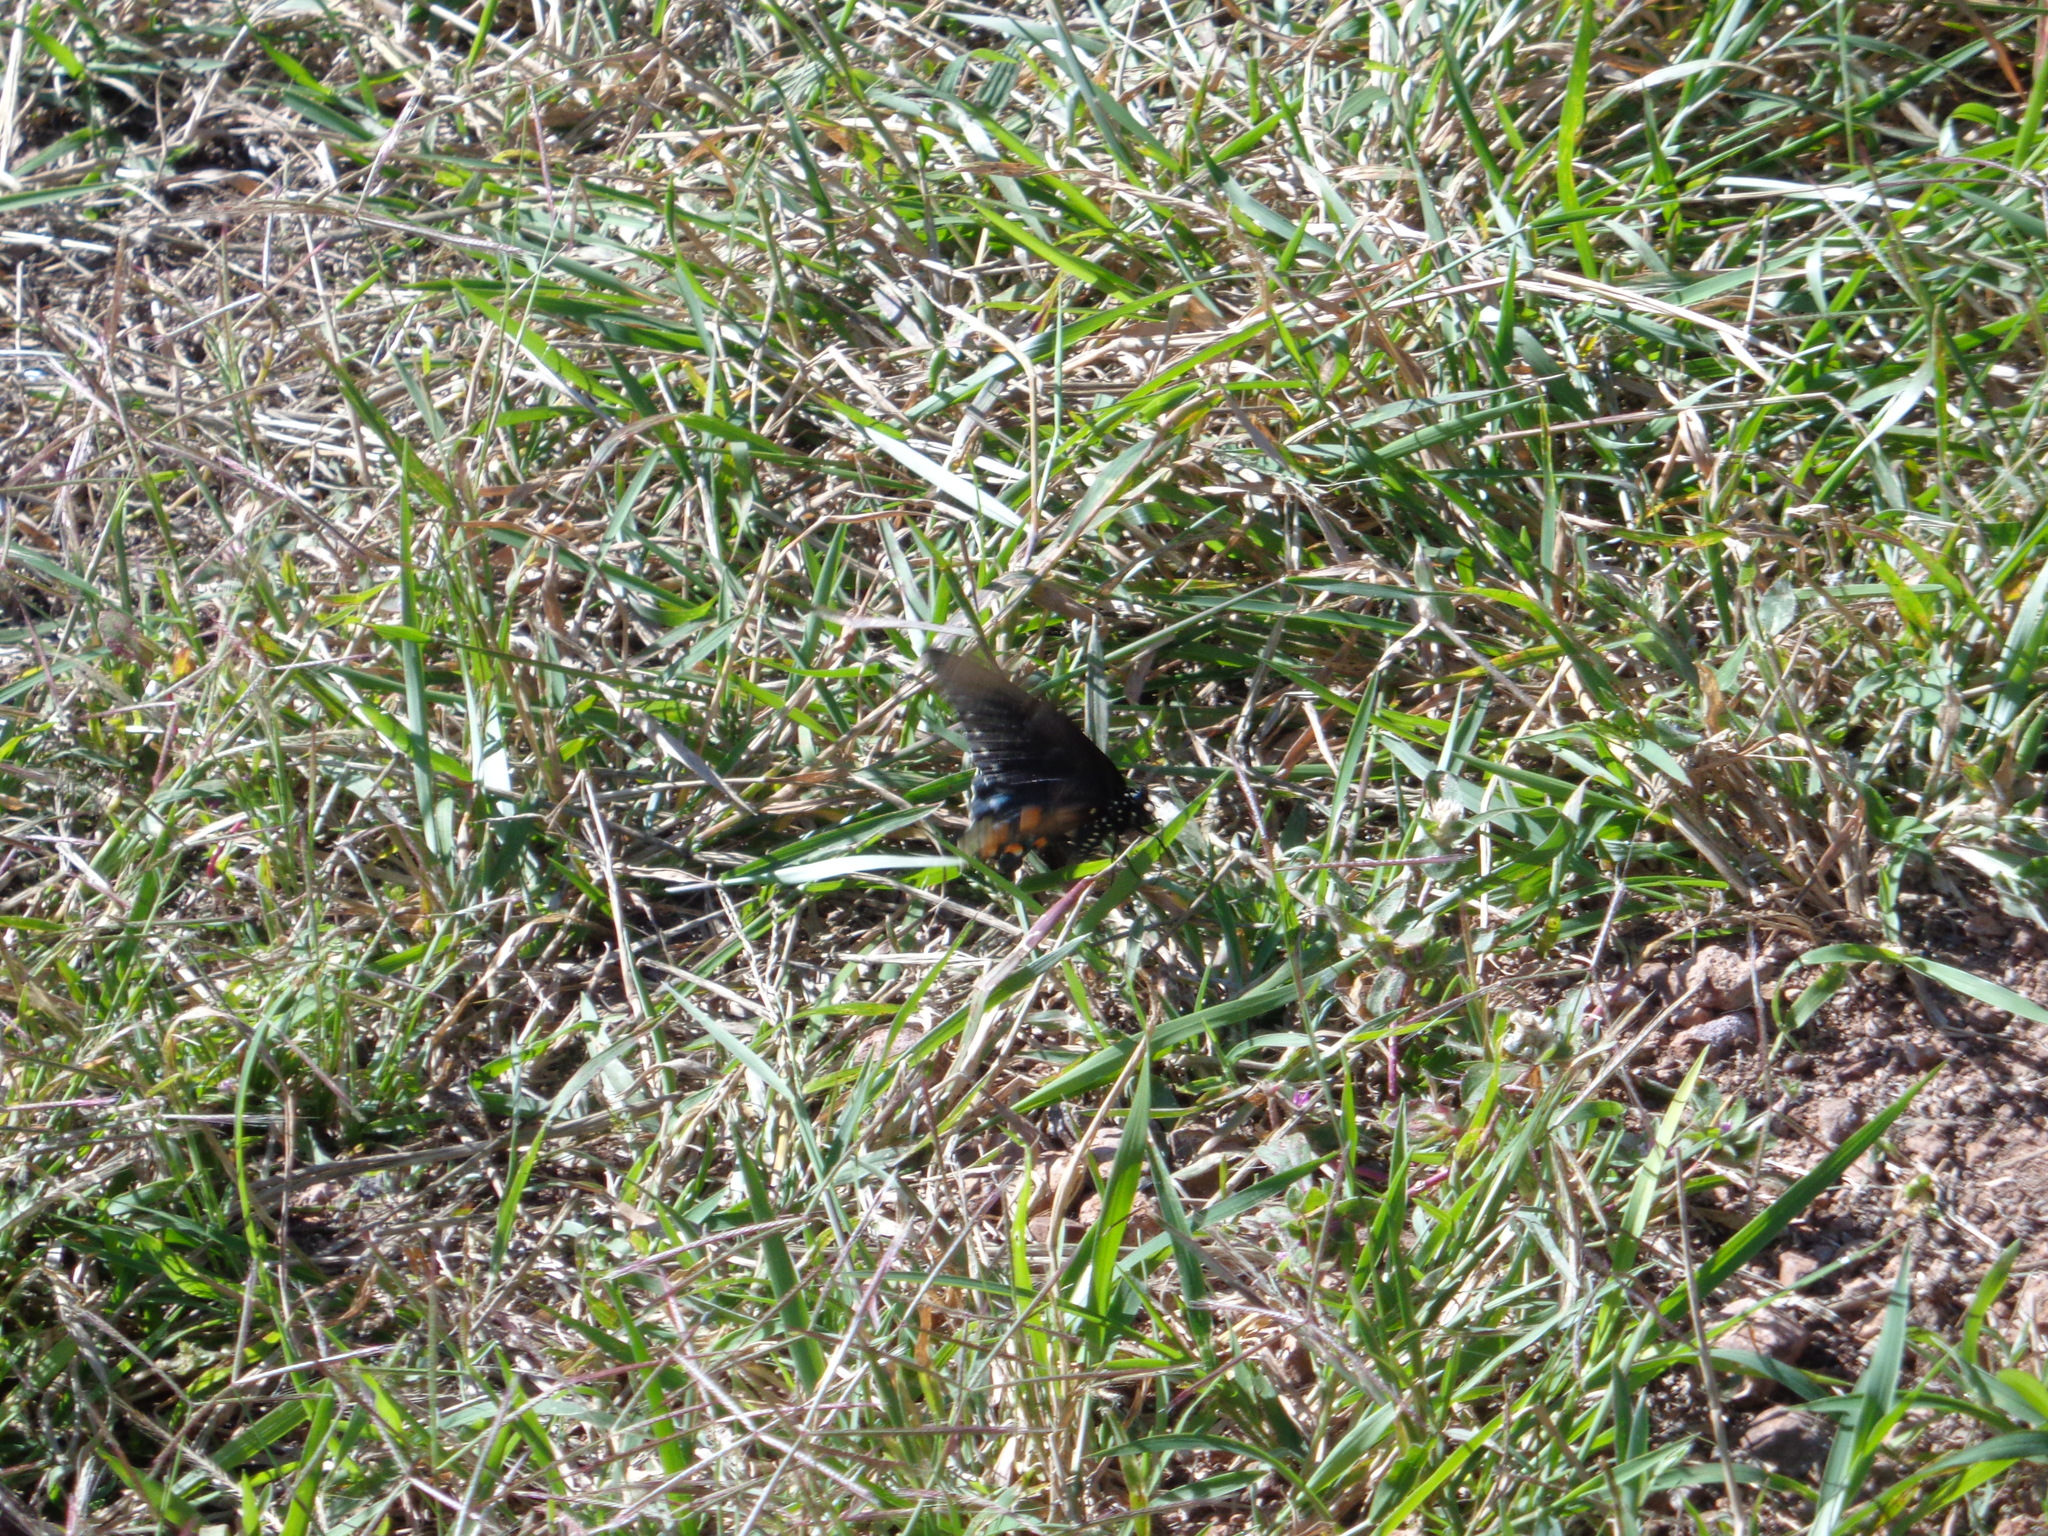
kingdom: Animalia
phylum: Arthropoda
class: Insecta
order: Lepidoptera
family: Papilionidae
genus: Battus
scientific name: Battus philenor
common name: Pipevine swallowtail
